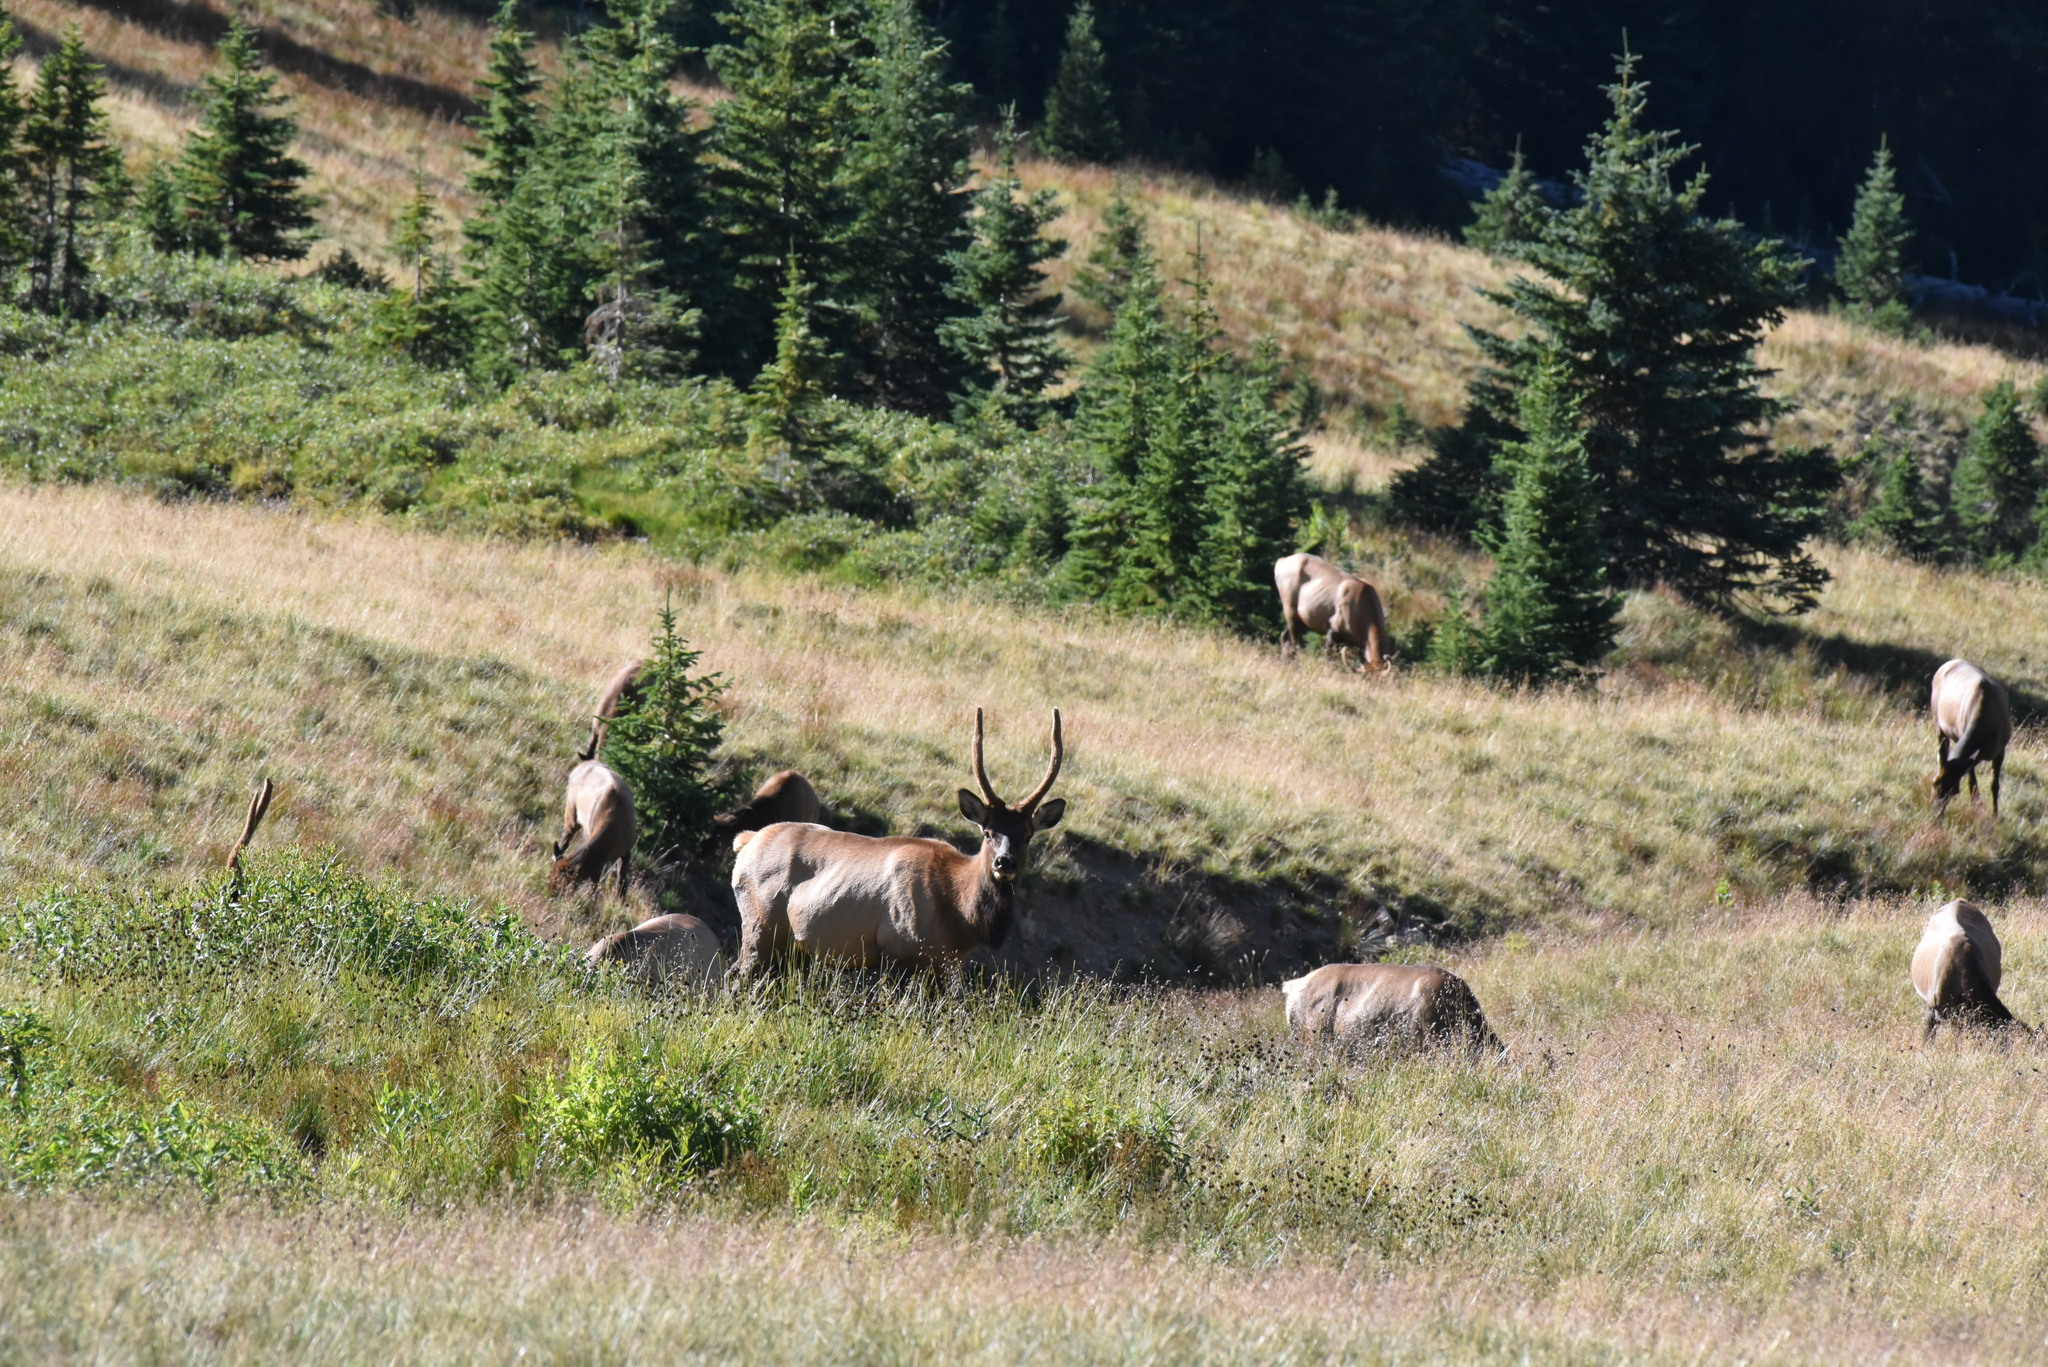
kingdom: Animalia
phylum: Chordata
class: Mammalia
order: Artiodactyla
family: Cervidae
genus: Cervus
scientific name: Cervus elaphus
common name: Red deer
